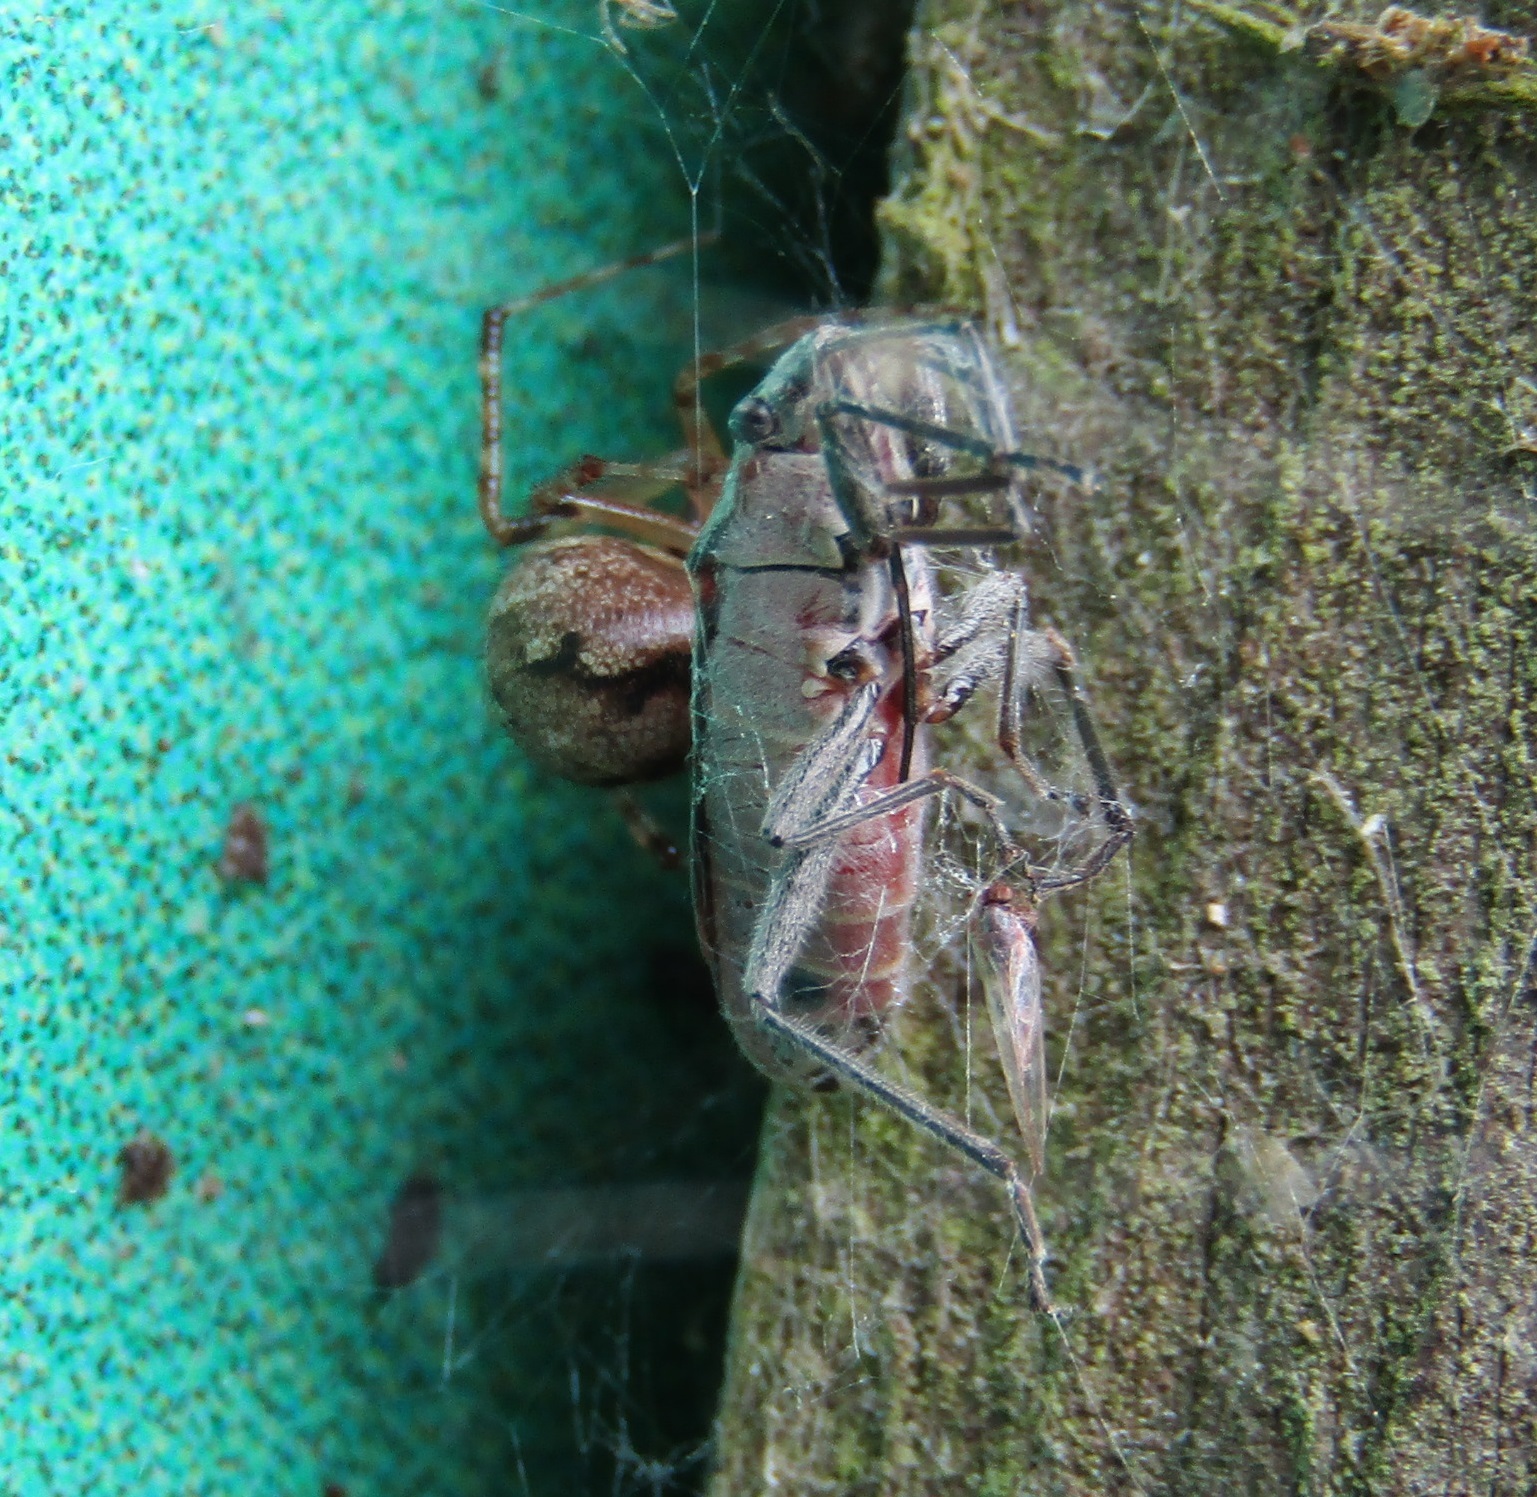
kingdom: Animalia
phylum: Arthropoda
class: Insecta
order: Hemiptera
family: Lygaeidae
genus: Arocatus
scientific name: Arocatus rusticus
